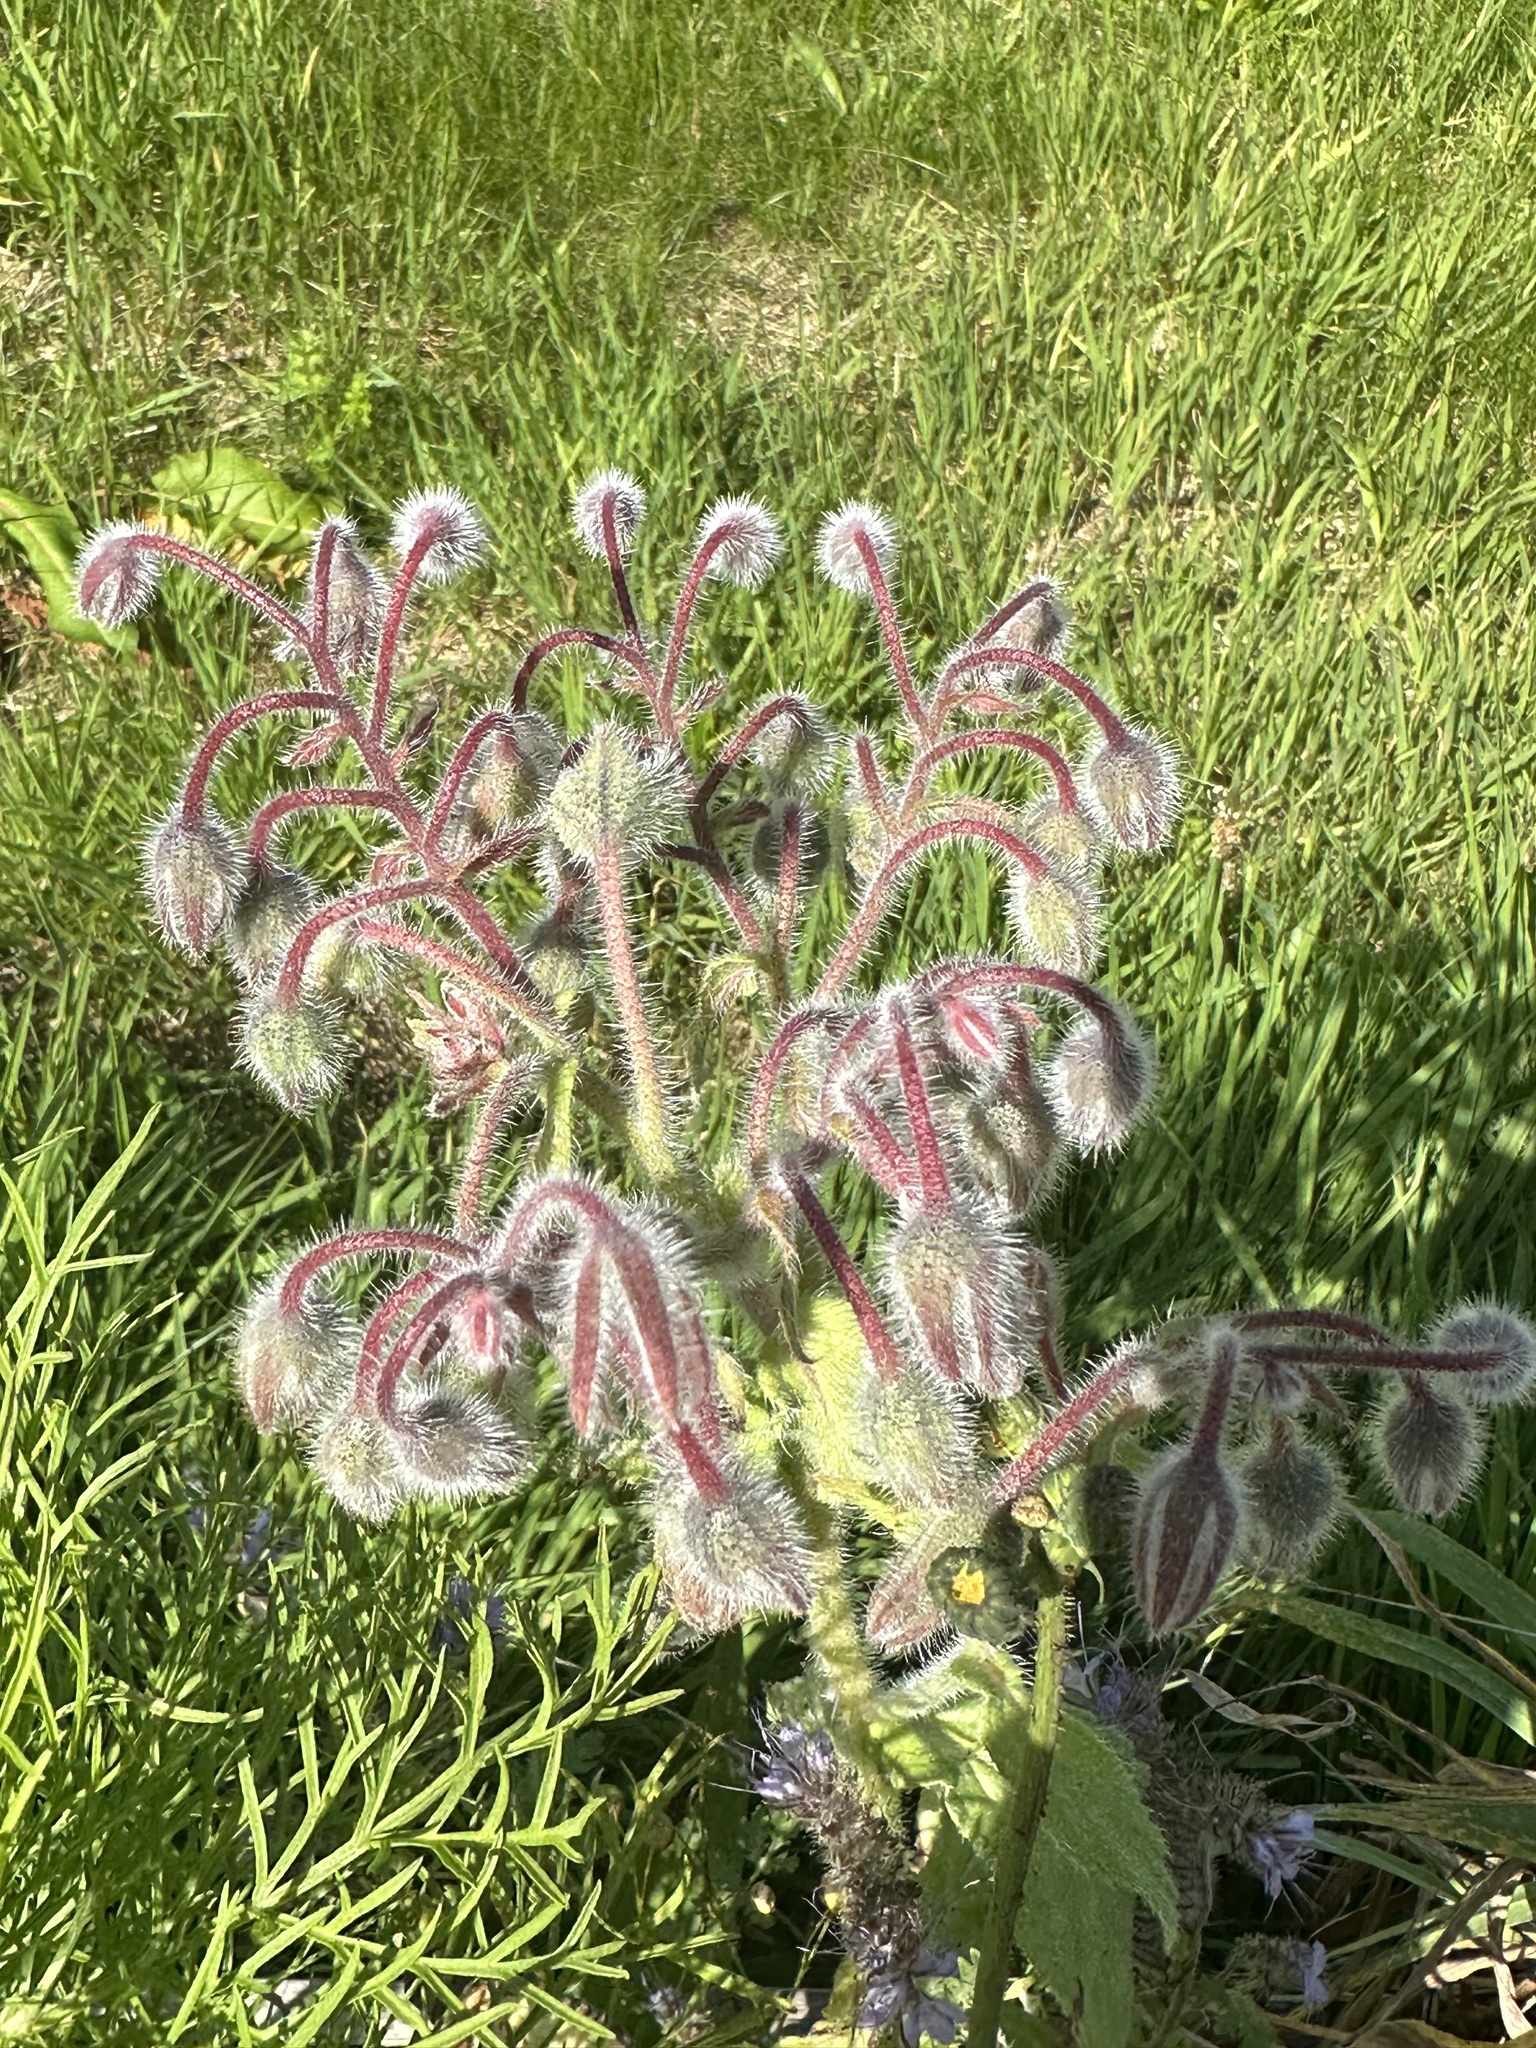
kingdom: Plantae
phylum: Tracheophyta
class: Magnoliopsida
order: Boraginales
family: Boraginaceae
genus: Borago
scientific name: Borago officinalis
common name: Borage
